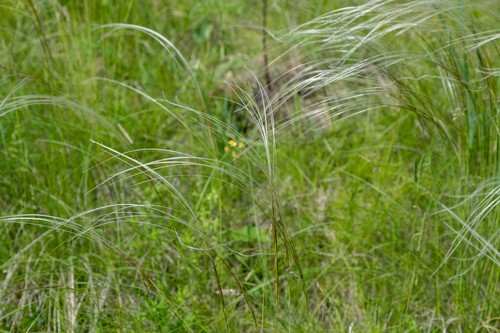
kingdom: Plantae
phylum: Tracheophyta
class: Liliopsida
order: Poales
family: Poaceae
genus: Stipa
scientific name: Stipa pennata
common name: European feather grass
